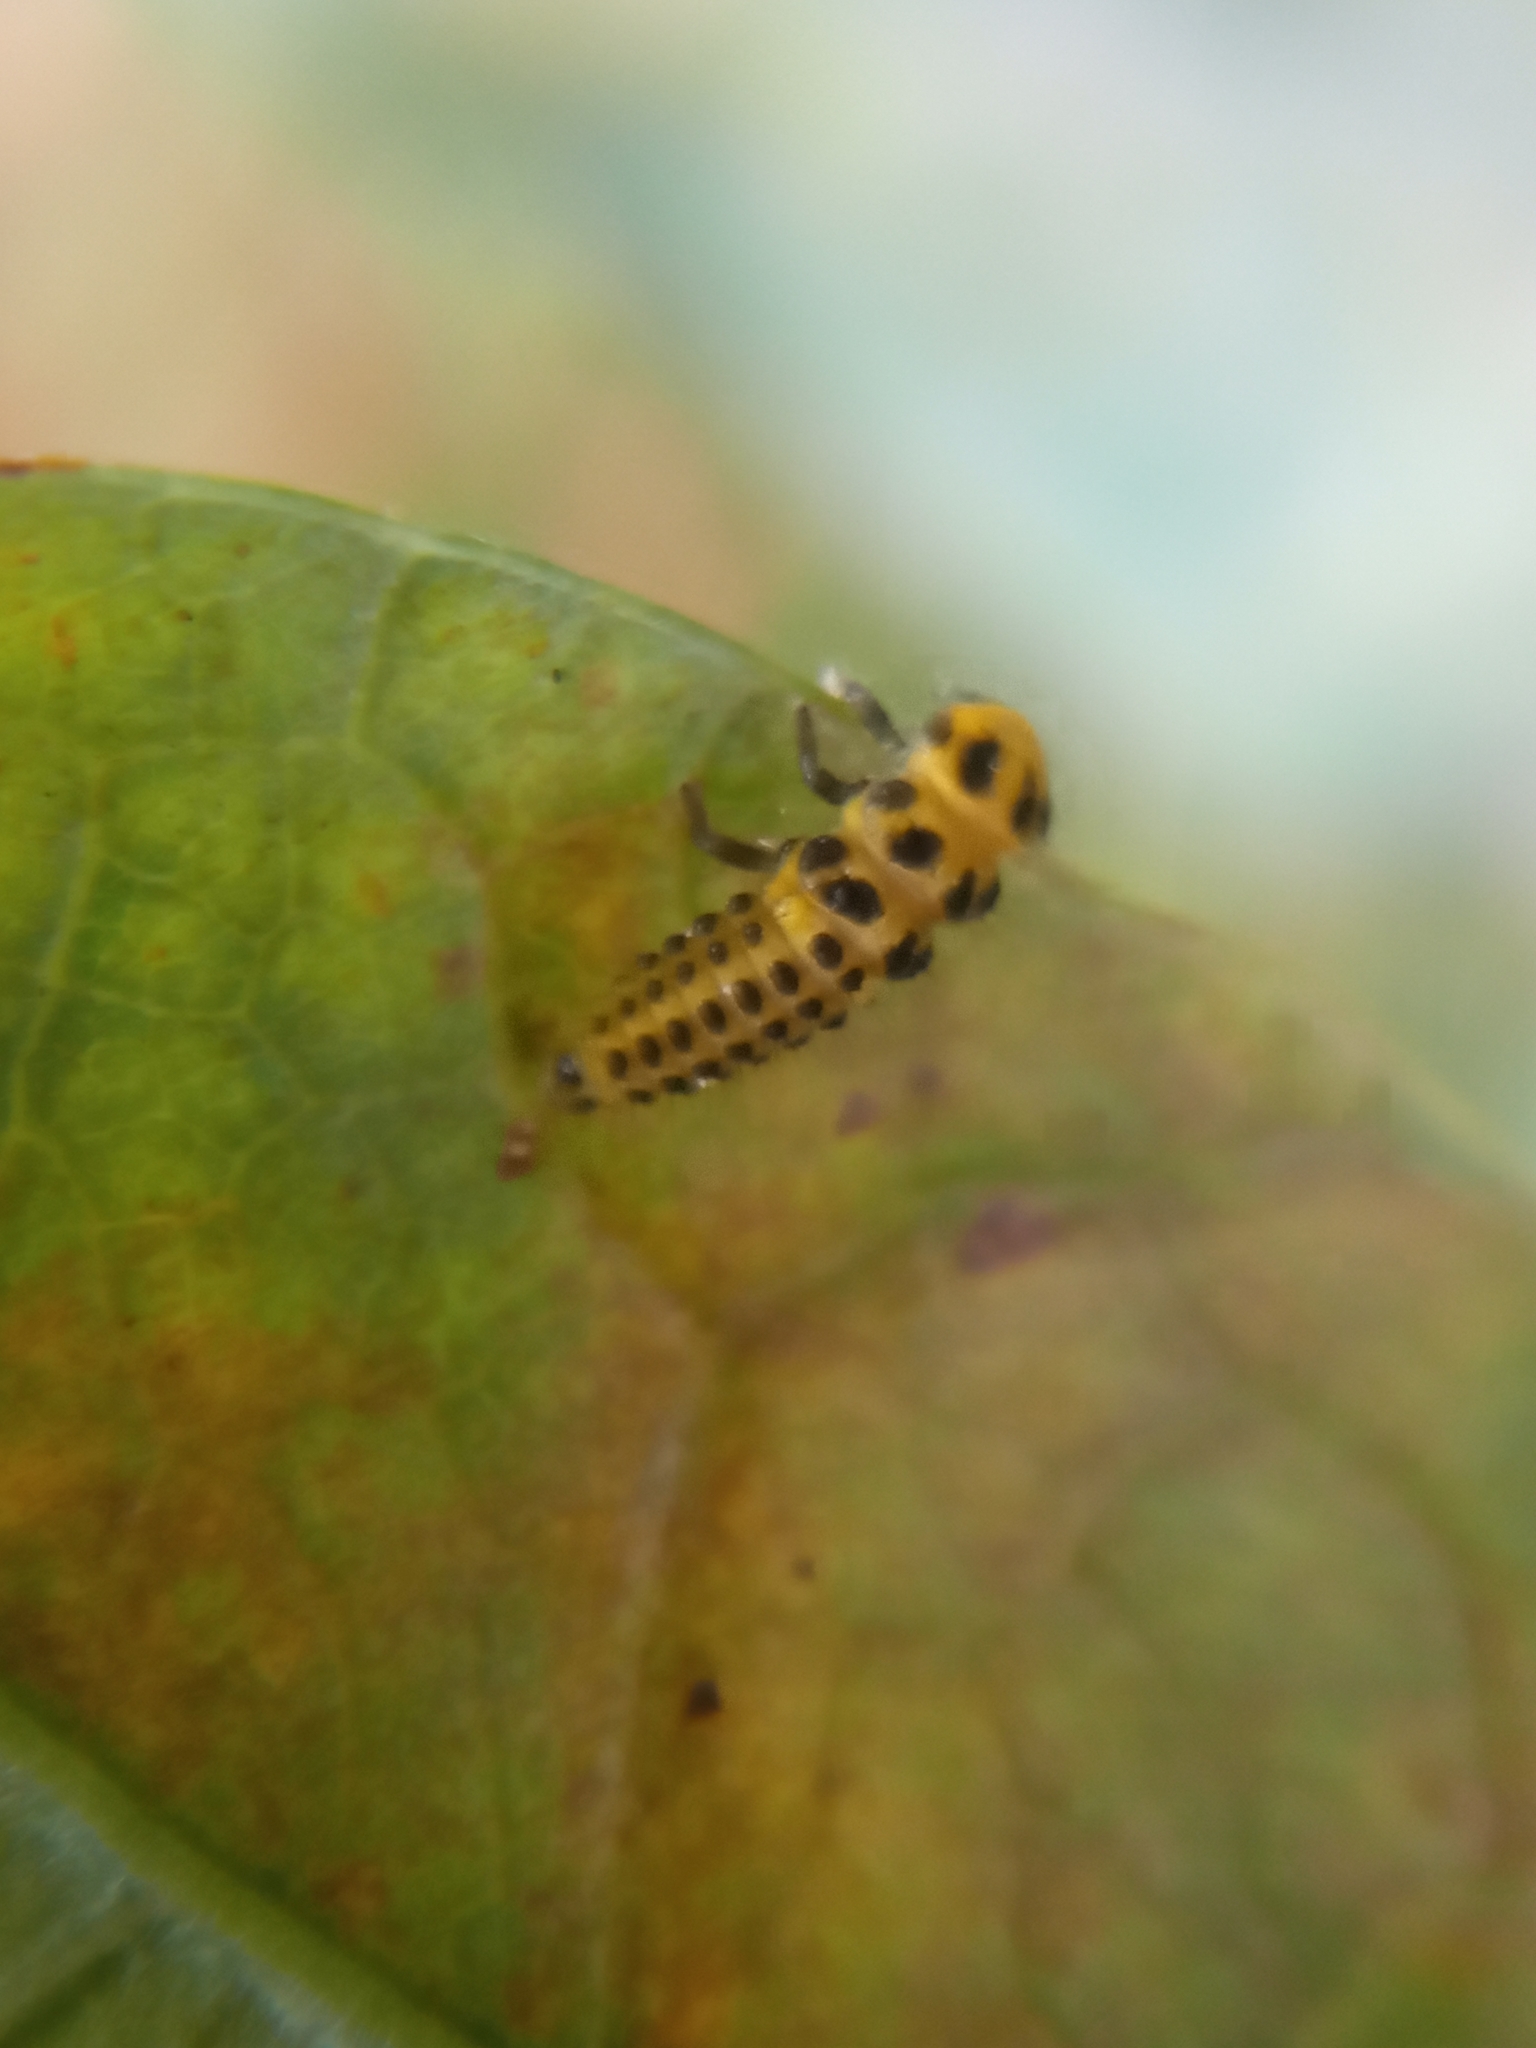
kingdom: Animalia
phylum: Arthropoda
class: Insecta
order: Coleoptera
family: Coccinellidae
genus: Psyllobora
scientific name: Psyllobora vigintiduopunctata
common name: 22-spot ladybird
